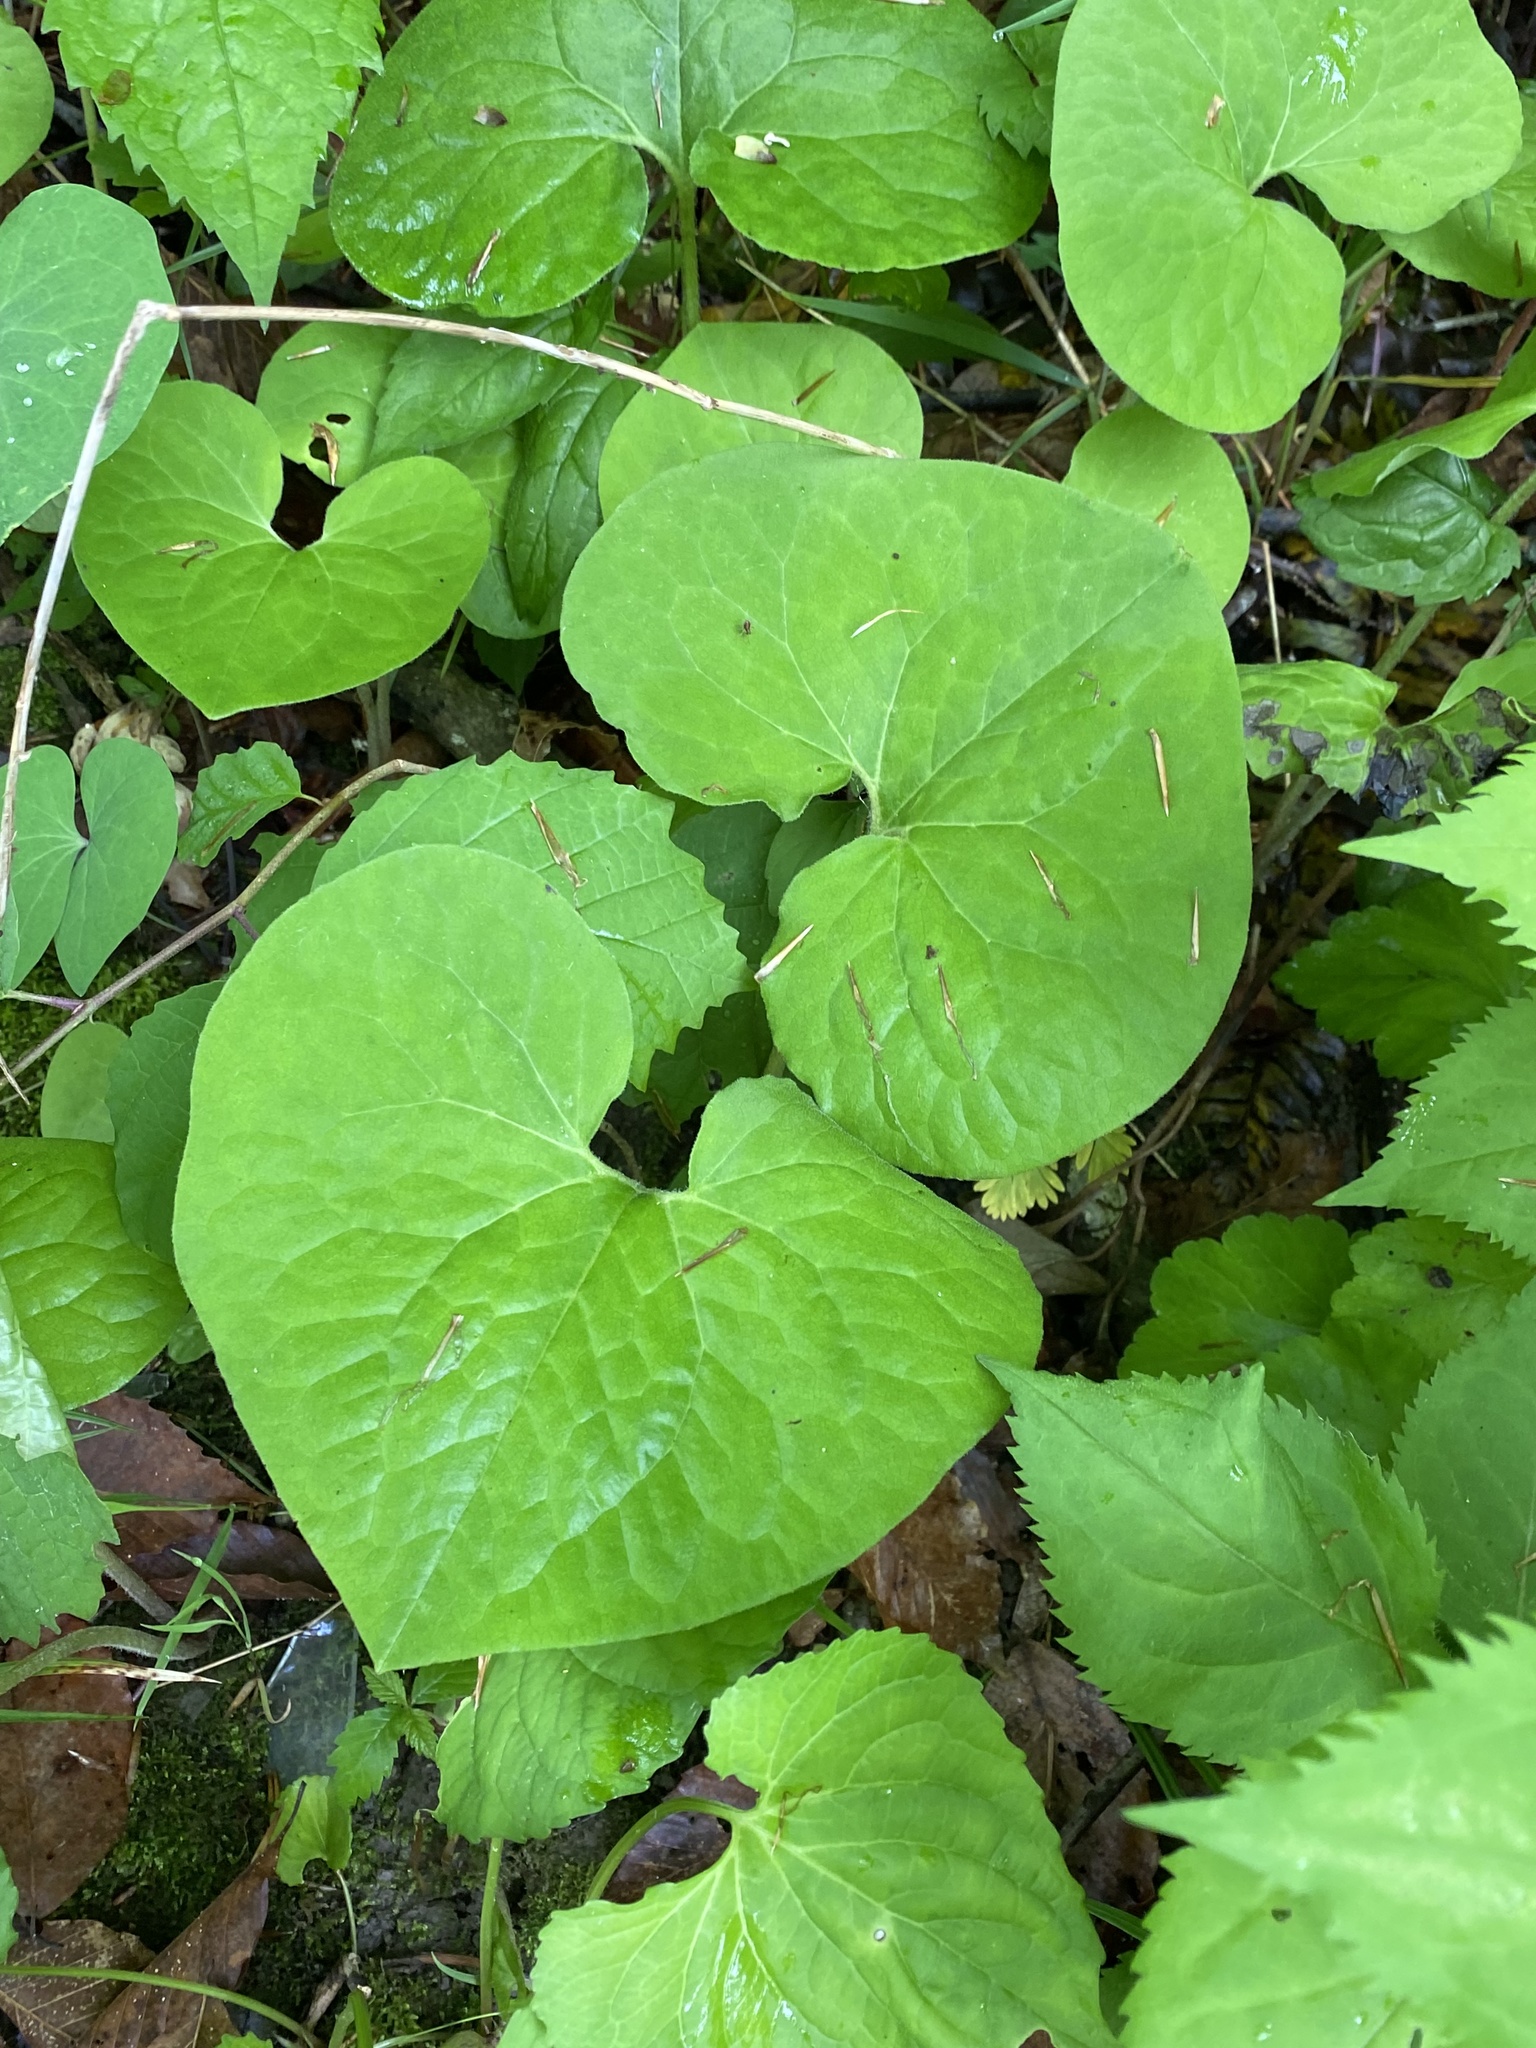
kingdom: Plantae
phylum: Tracheophyta
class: Magnoliopsida
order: Piperales
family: Aristolochiaceae
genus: Asarum
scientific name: Asarum canadense
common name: Wild ginger
